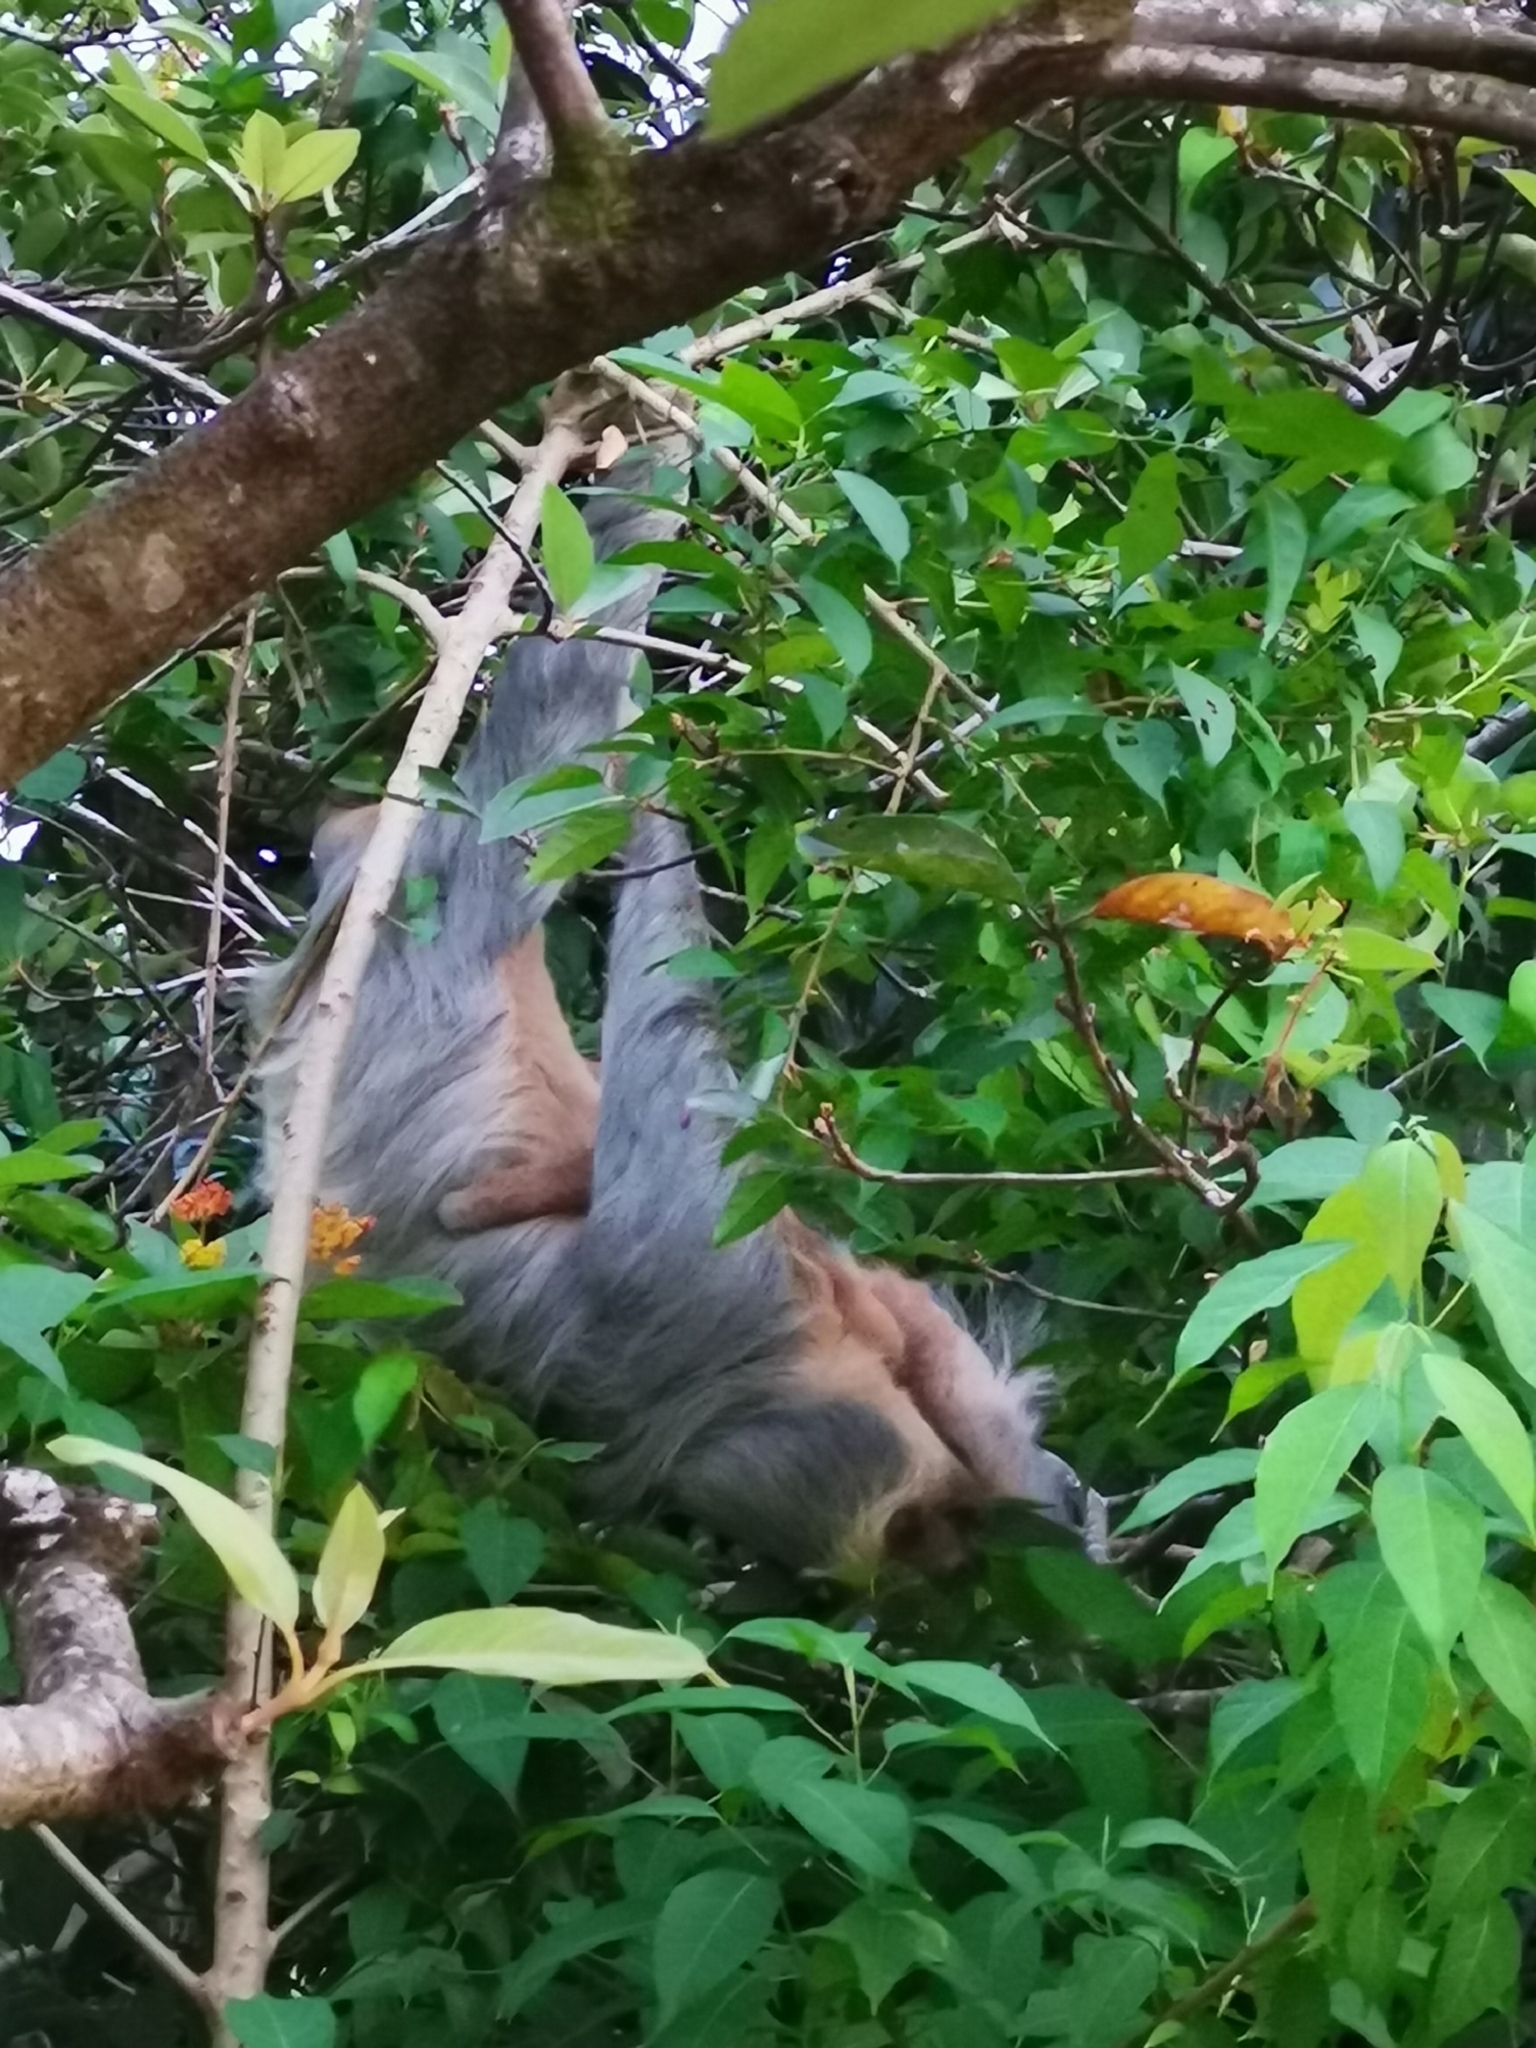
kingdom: Animalia
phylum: Chordata
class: Mammalia
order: Pilosa
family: Megalonychidae
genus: Choloepus
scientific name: Choloepus hoffmanni
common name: Hoffmann's two-toed sloth
